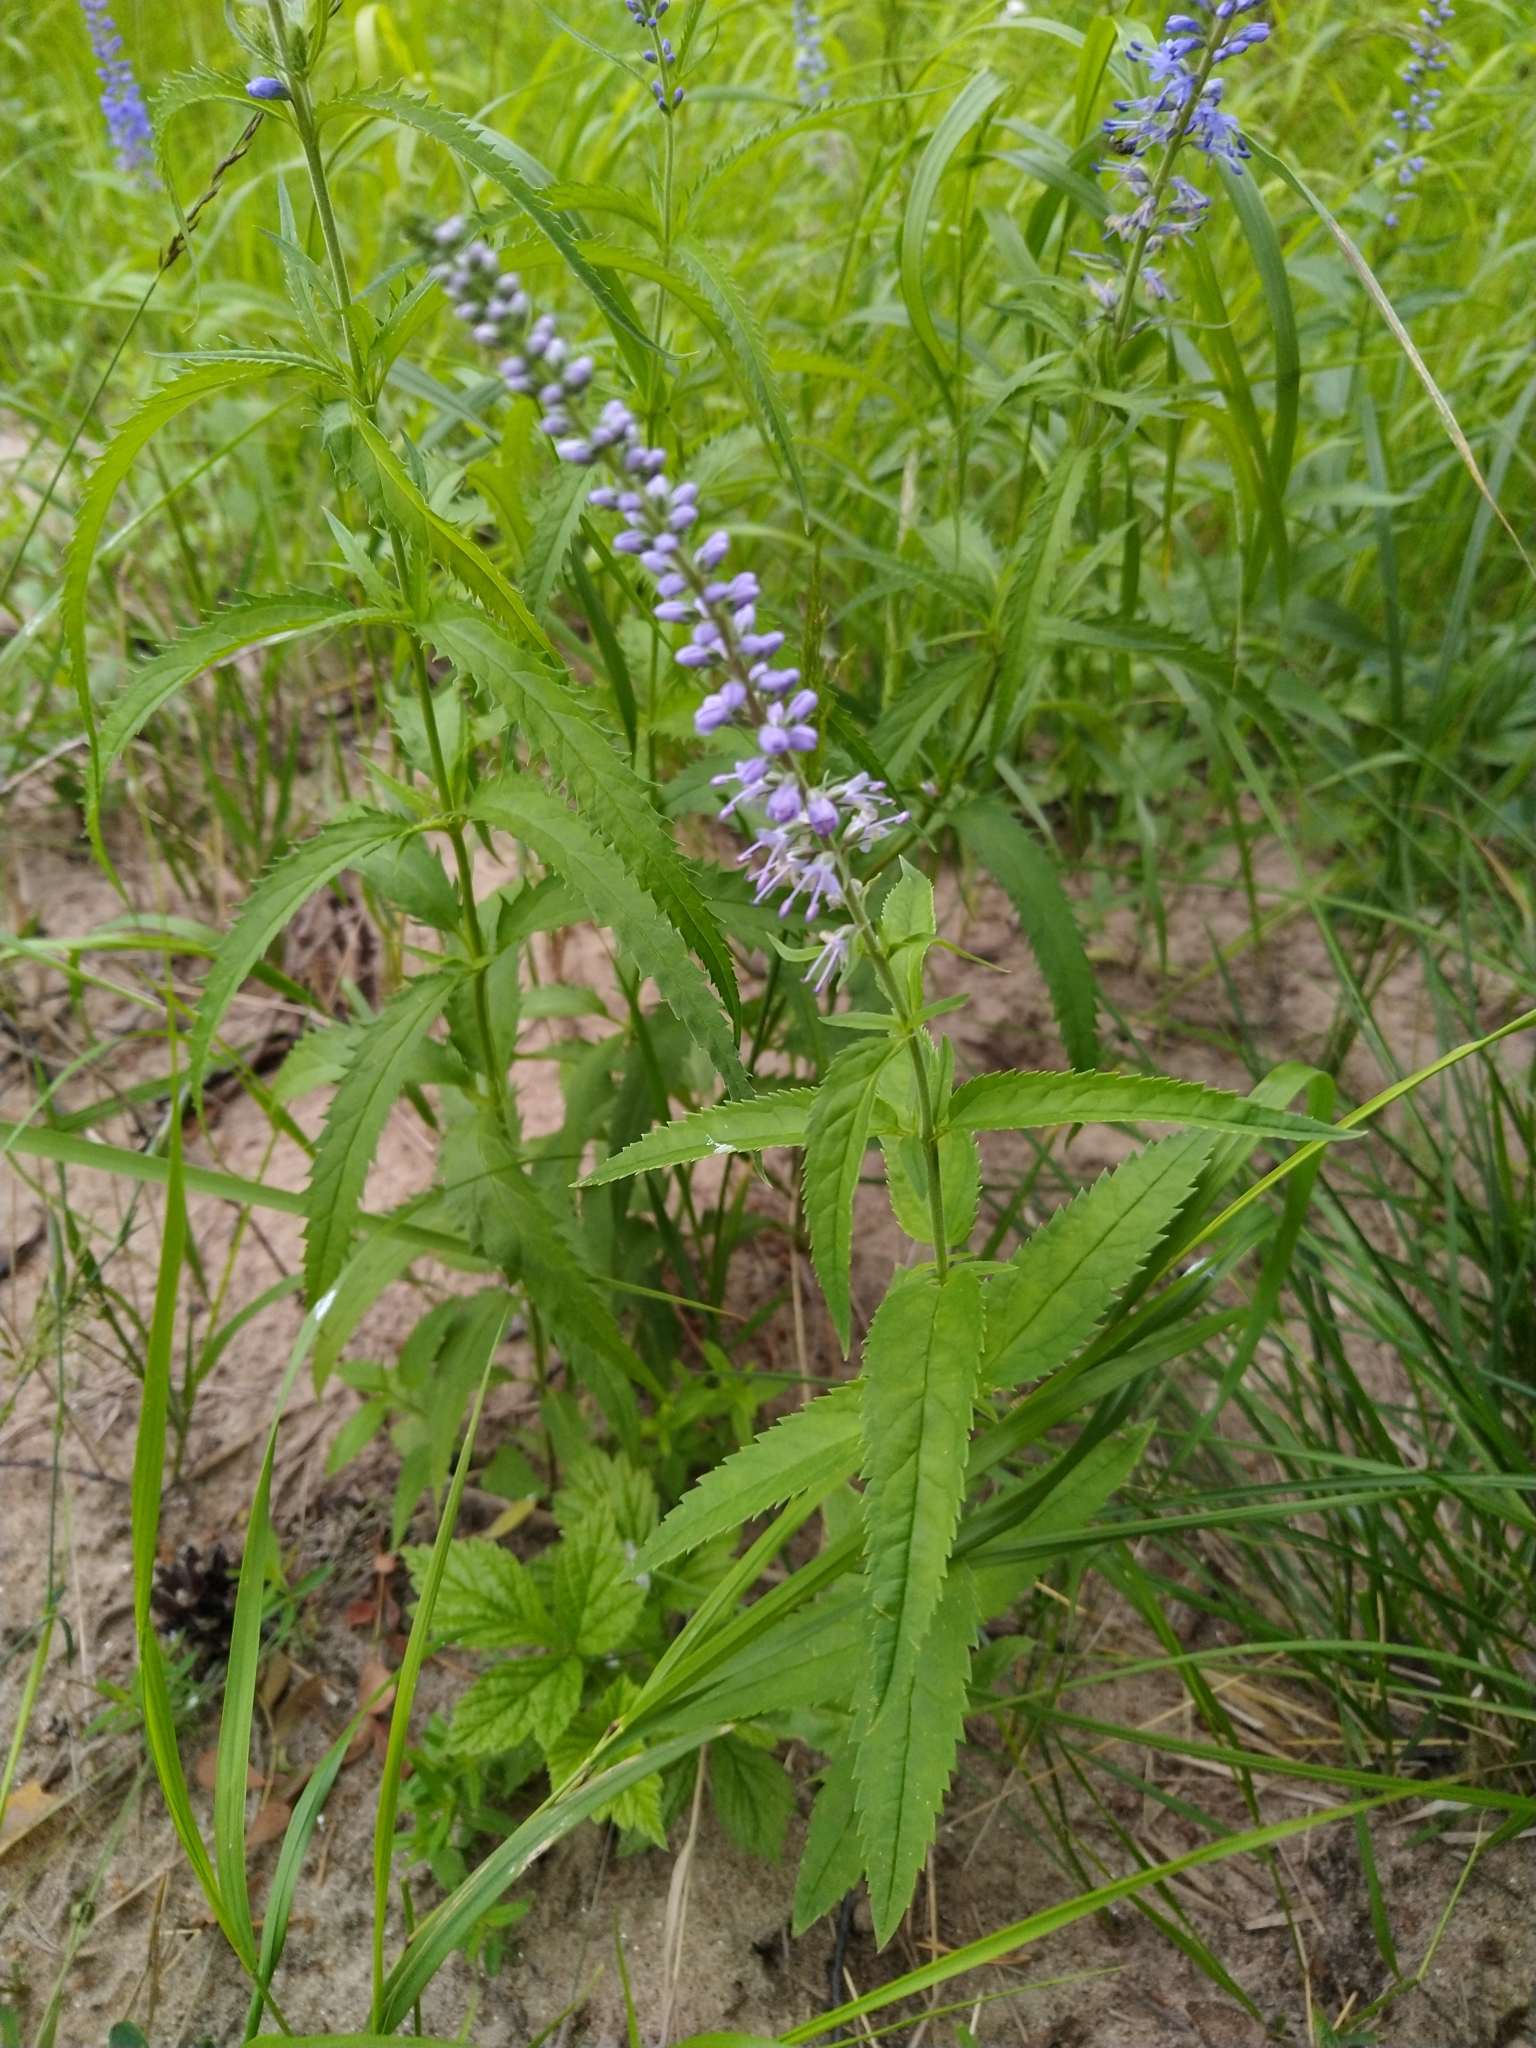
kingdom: Plantae
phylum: Tracheophyta
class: Magnoliopsida
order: Lamiales
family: Plantaginaceae
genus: Veronica
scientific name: Veronica longifolia
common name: Garden speedwell
